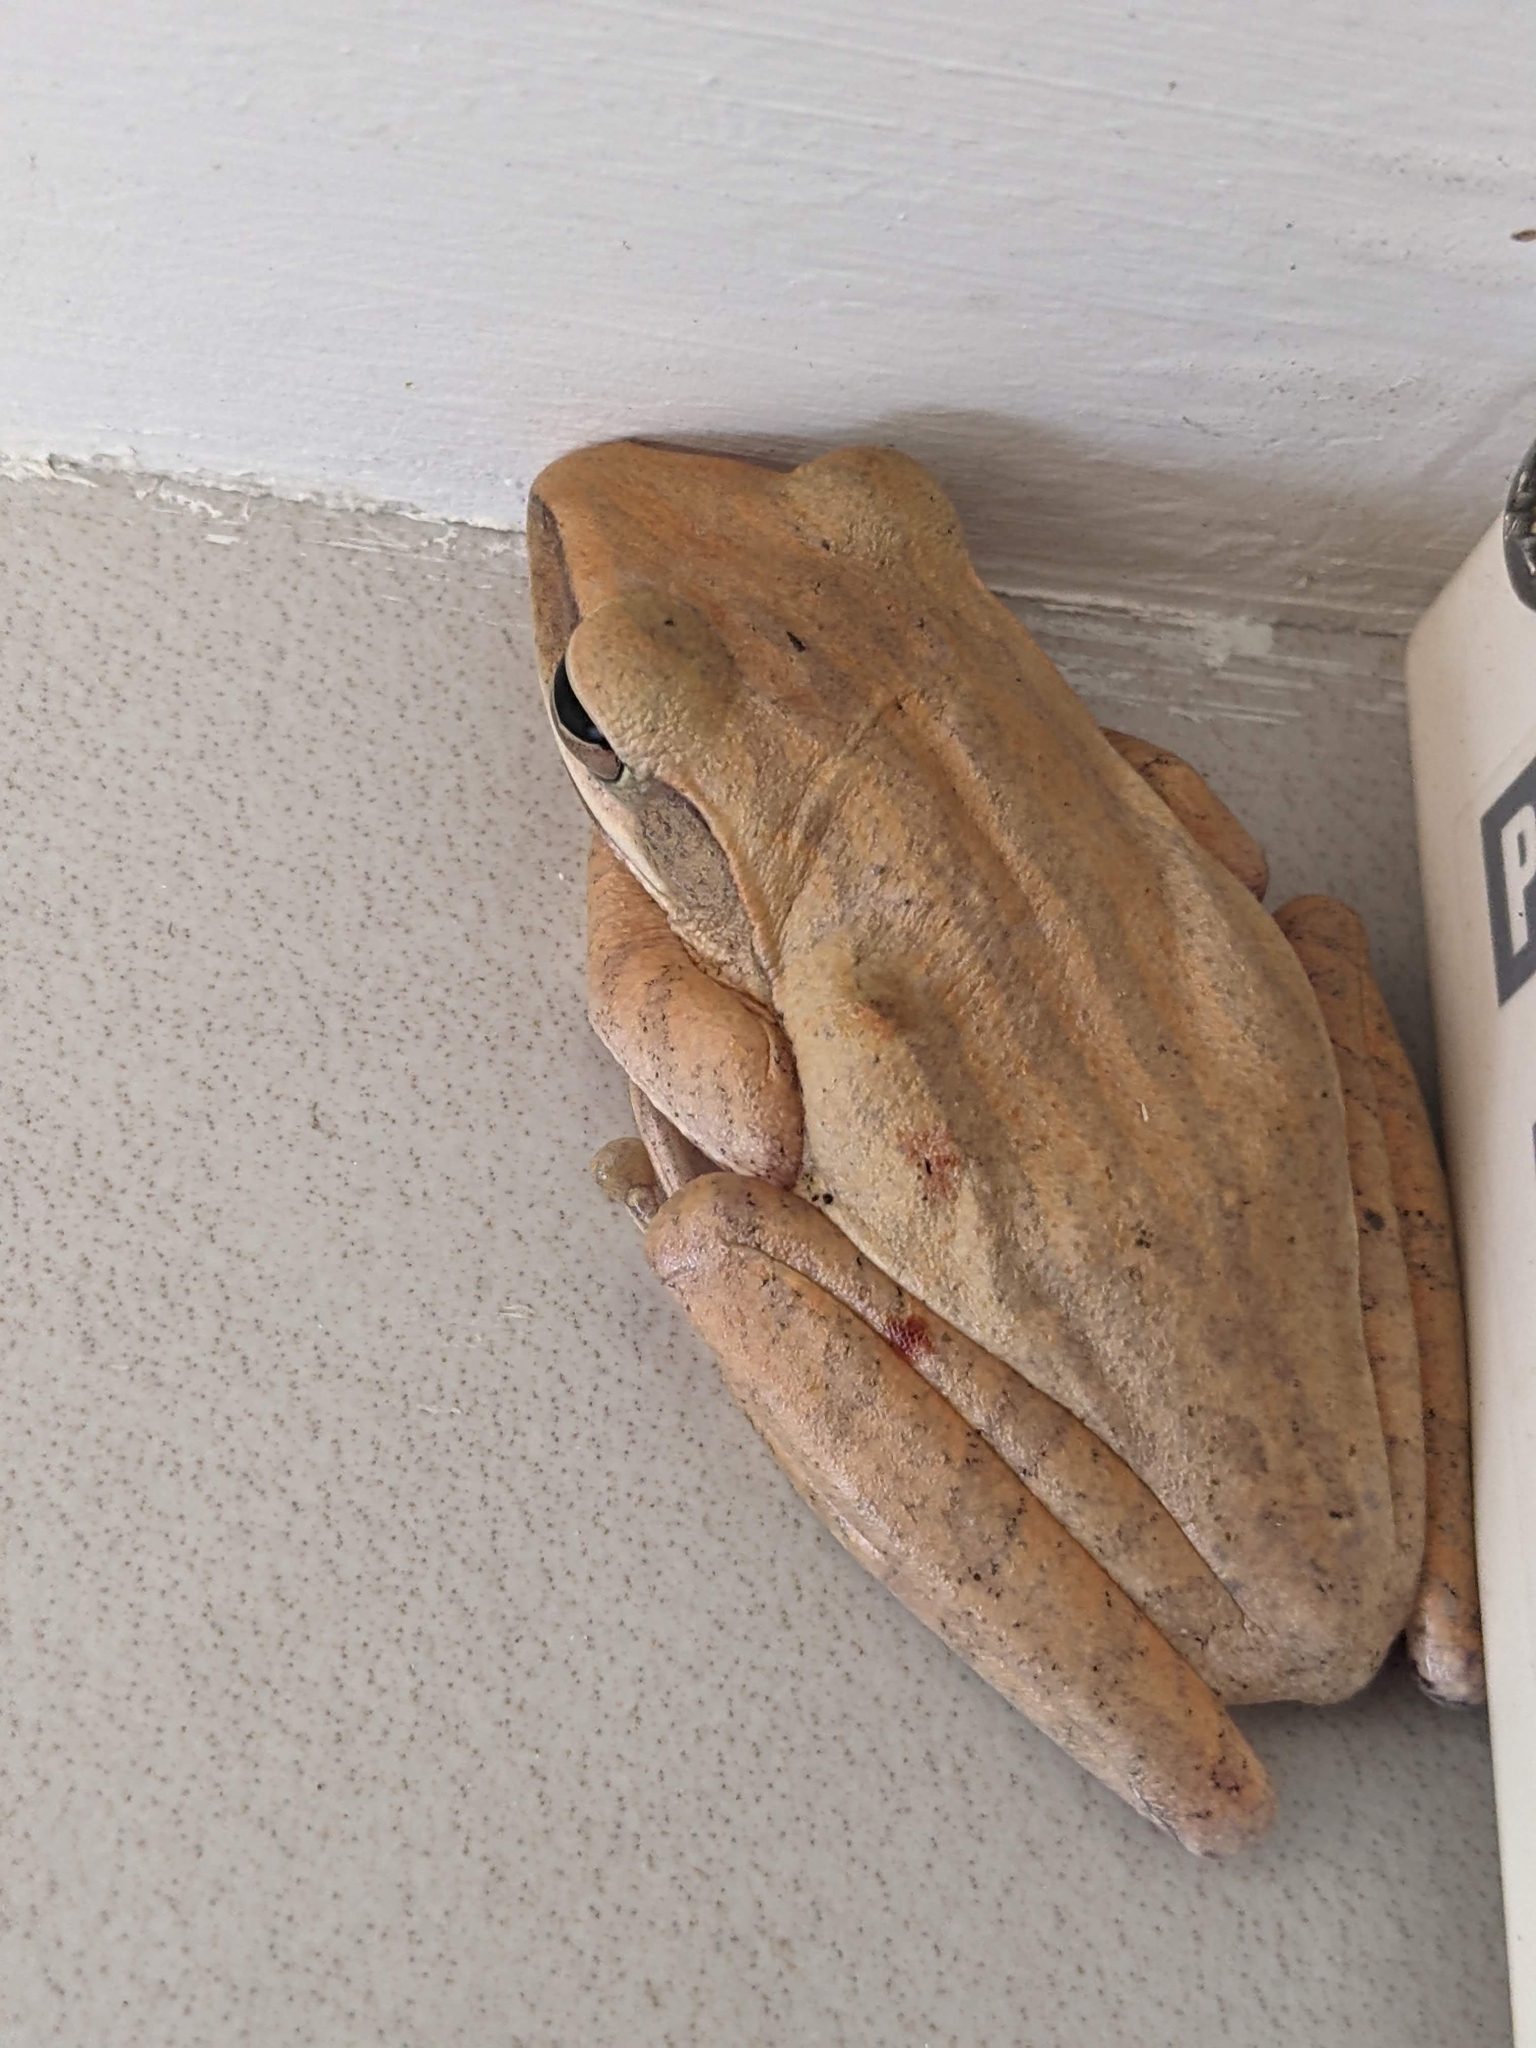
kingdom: Animalia
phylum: Chordata
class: Amphibia
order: Anura
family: Rhacophoridae
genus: Polypedates
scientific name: Polypedates leucomystax
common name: Common tree frog/four-lined tree frog
